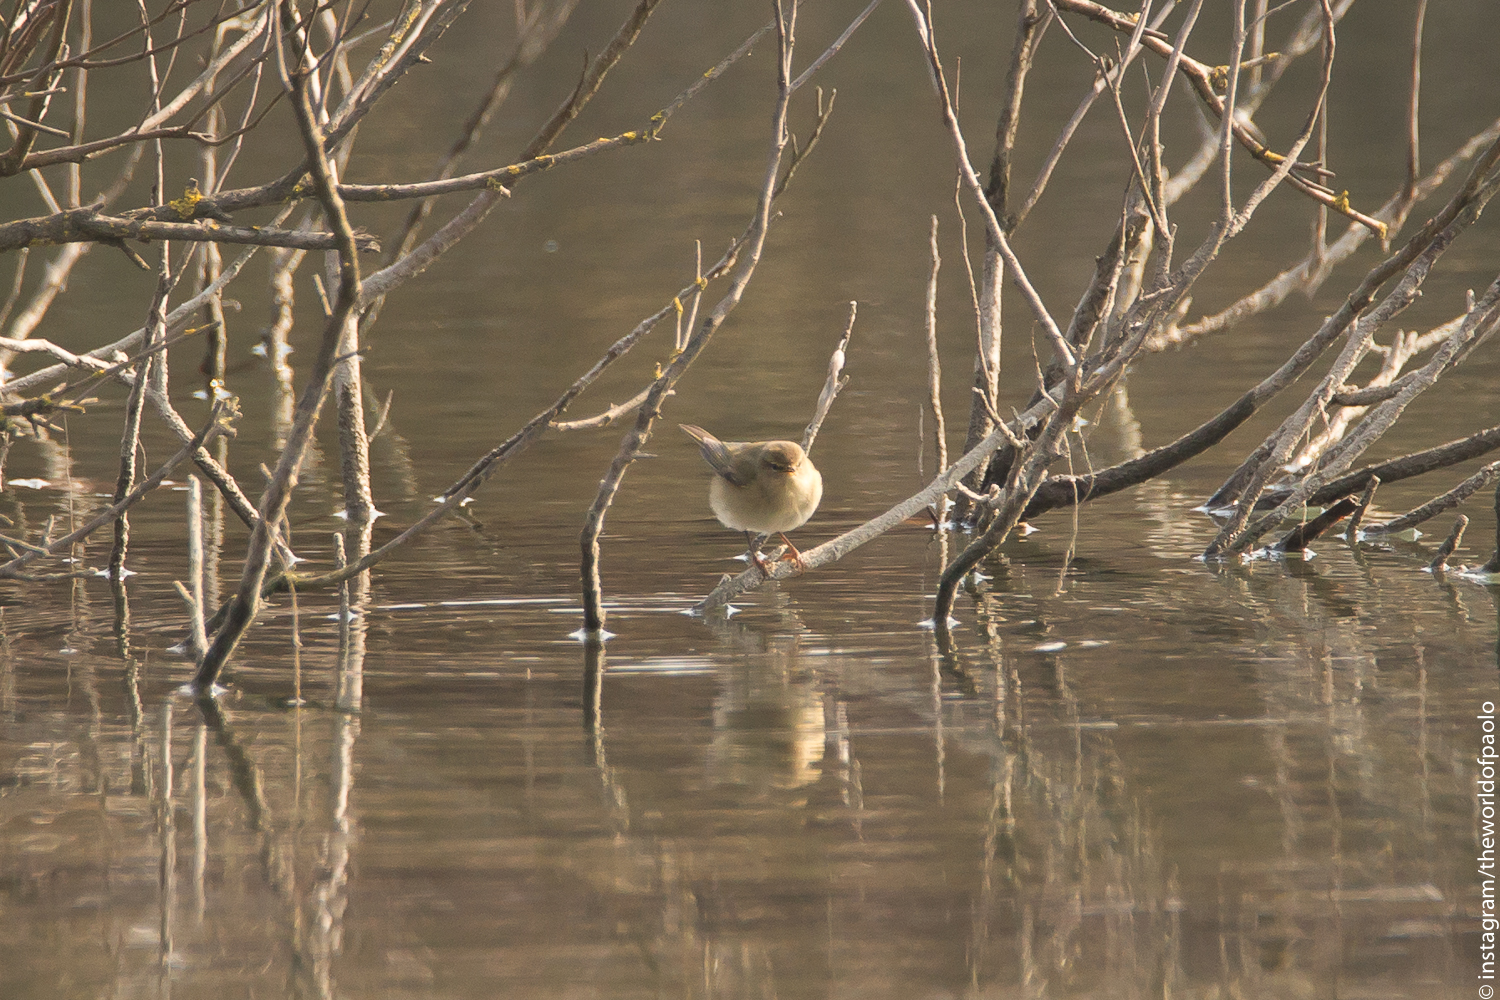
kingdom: Animalia
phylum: Chordata
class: Aves
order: Passeriformes
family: Phylloscopidae
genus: Phylloscopus
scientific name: Phylloscopus collybita
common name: Common chiffchaff
